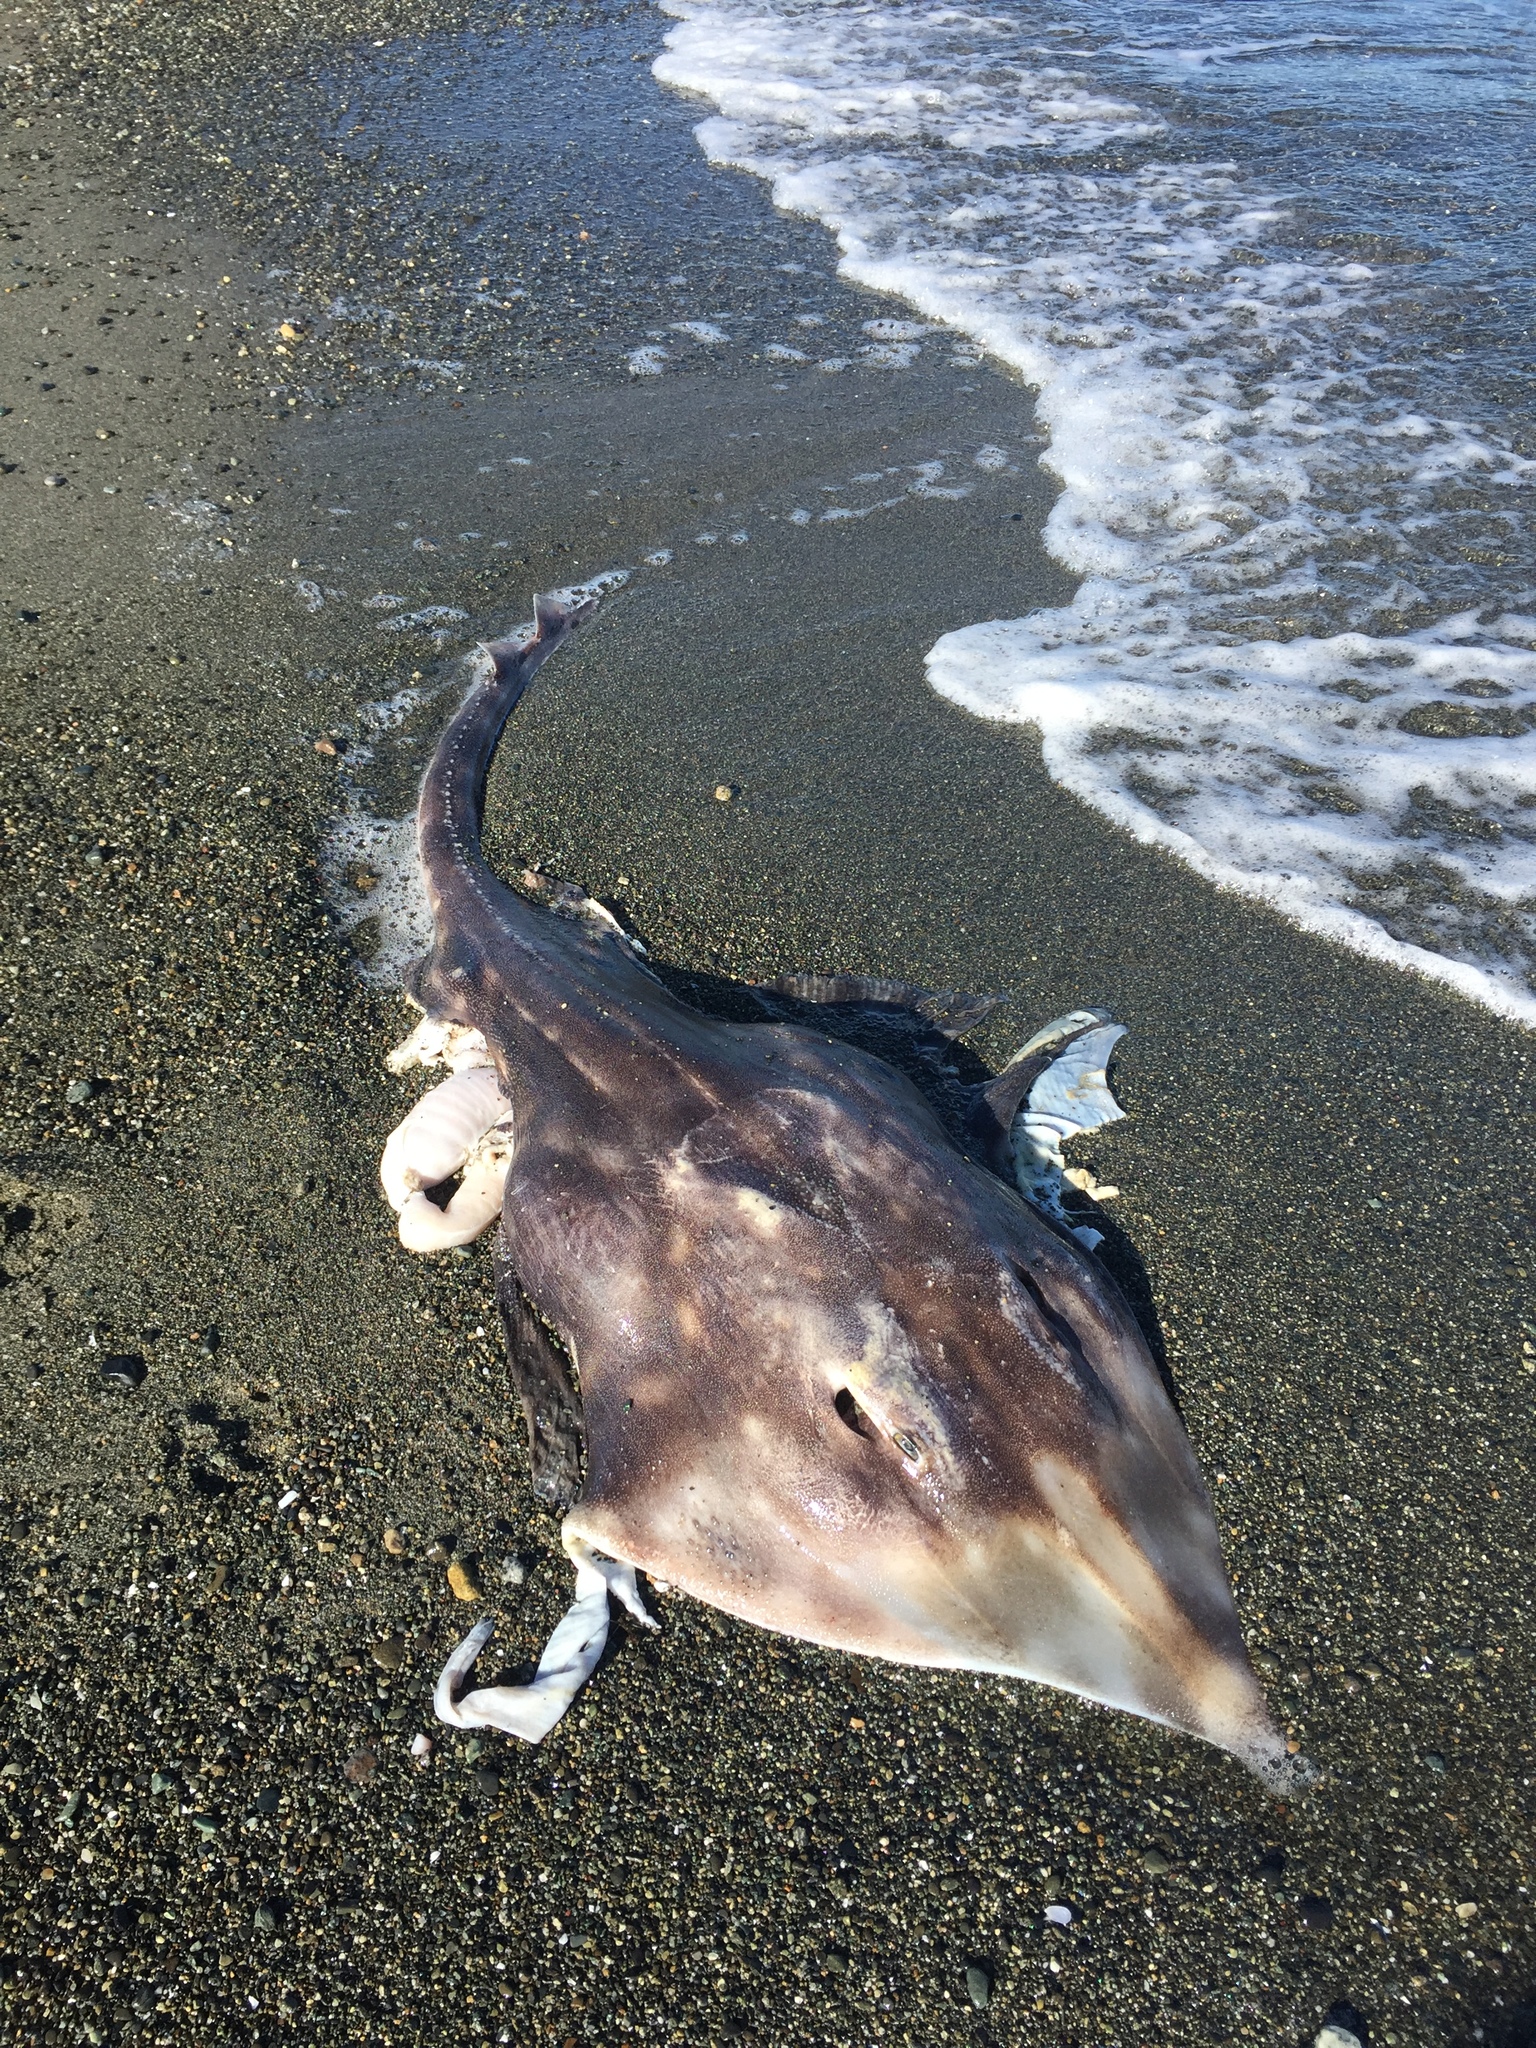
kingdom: Animalia
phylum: Chordata
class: Elasmobranchii
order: Rajiformes
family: Rajidae
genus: Beringraja
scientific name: Beringraja binoculata
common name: Big skate
